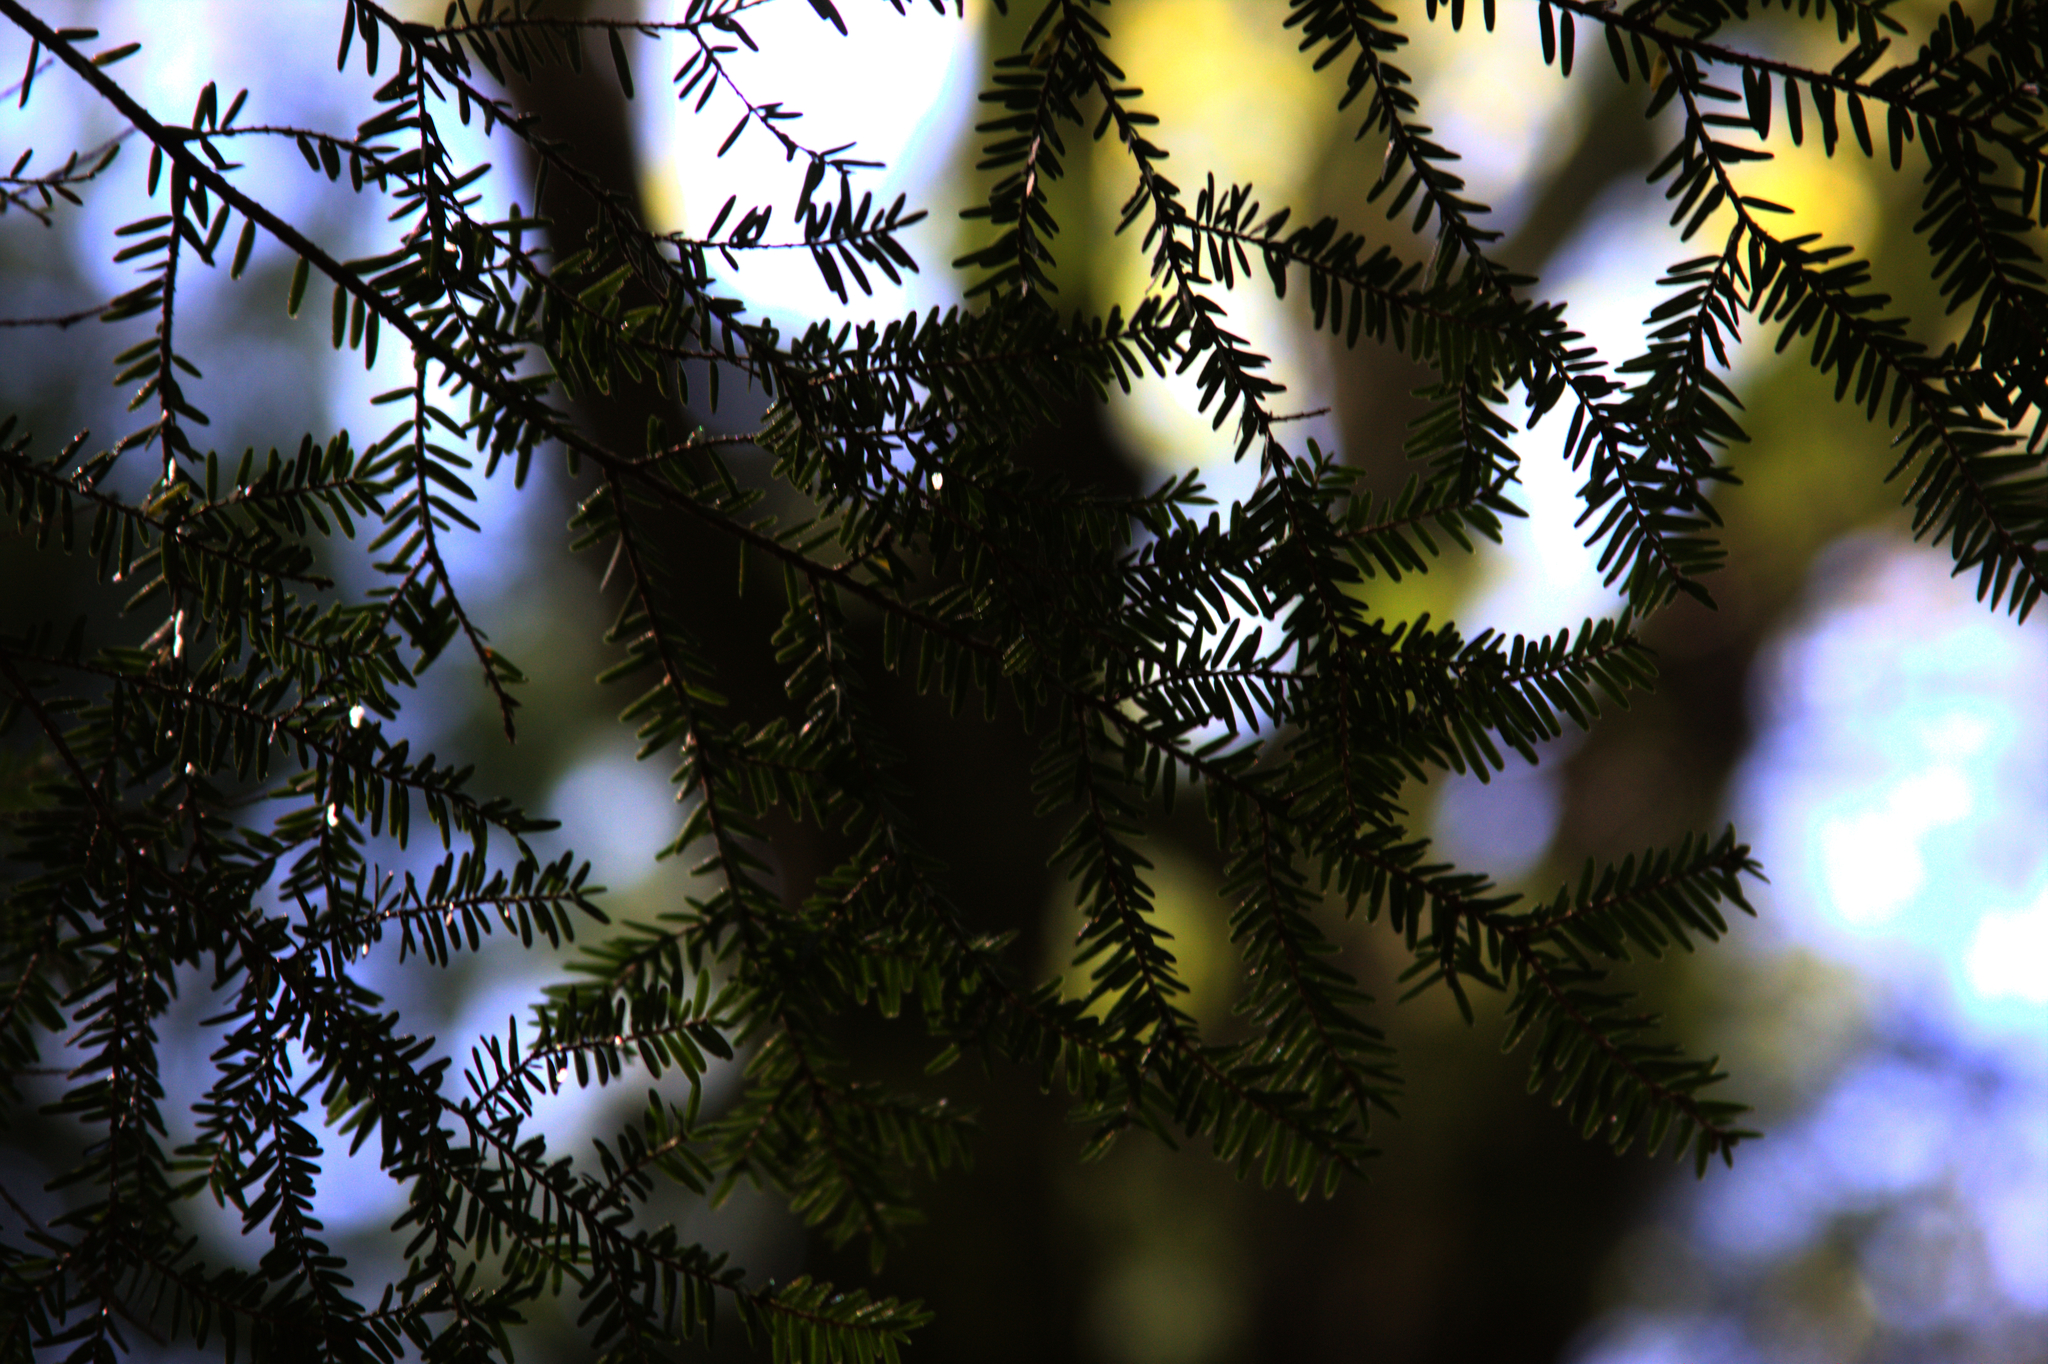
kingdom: Plantae
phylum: Tracheophyta
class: Pinopsida
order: Pinales
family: Pinaceae
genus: Tsuga
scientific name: Tsuga canadensis
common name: Eastern hemlock
